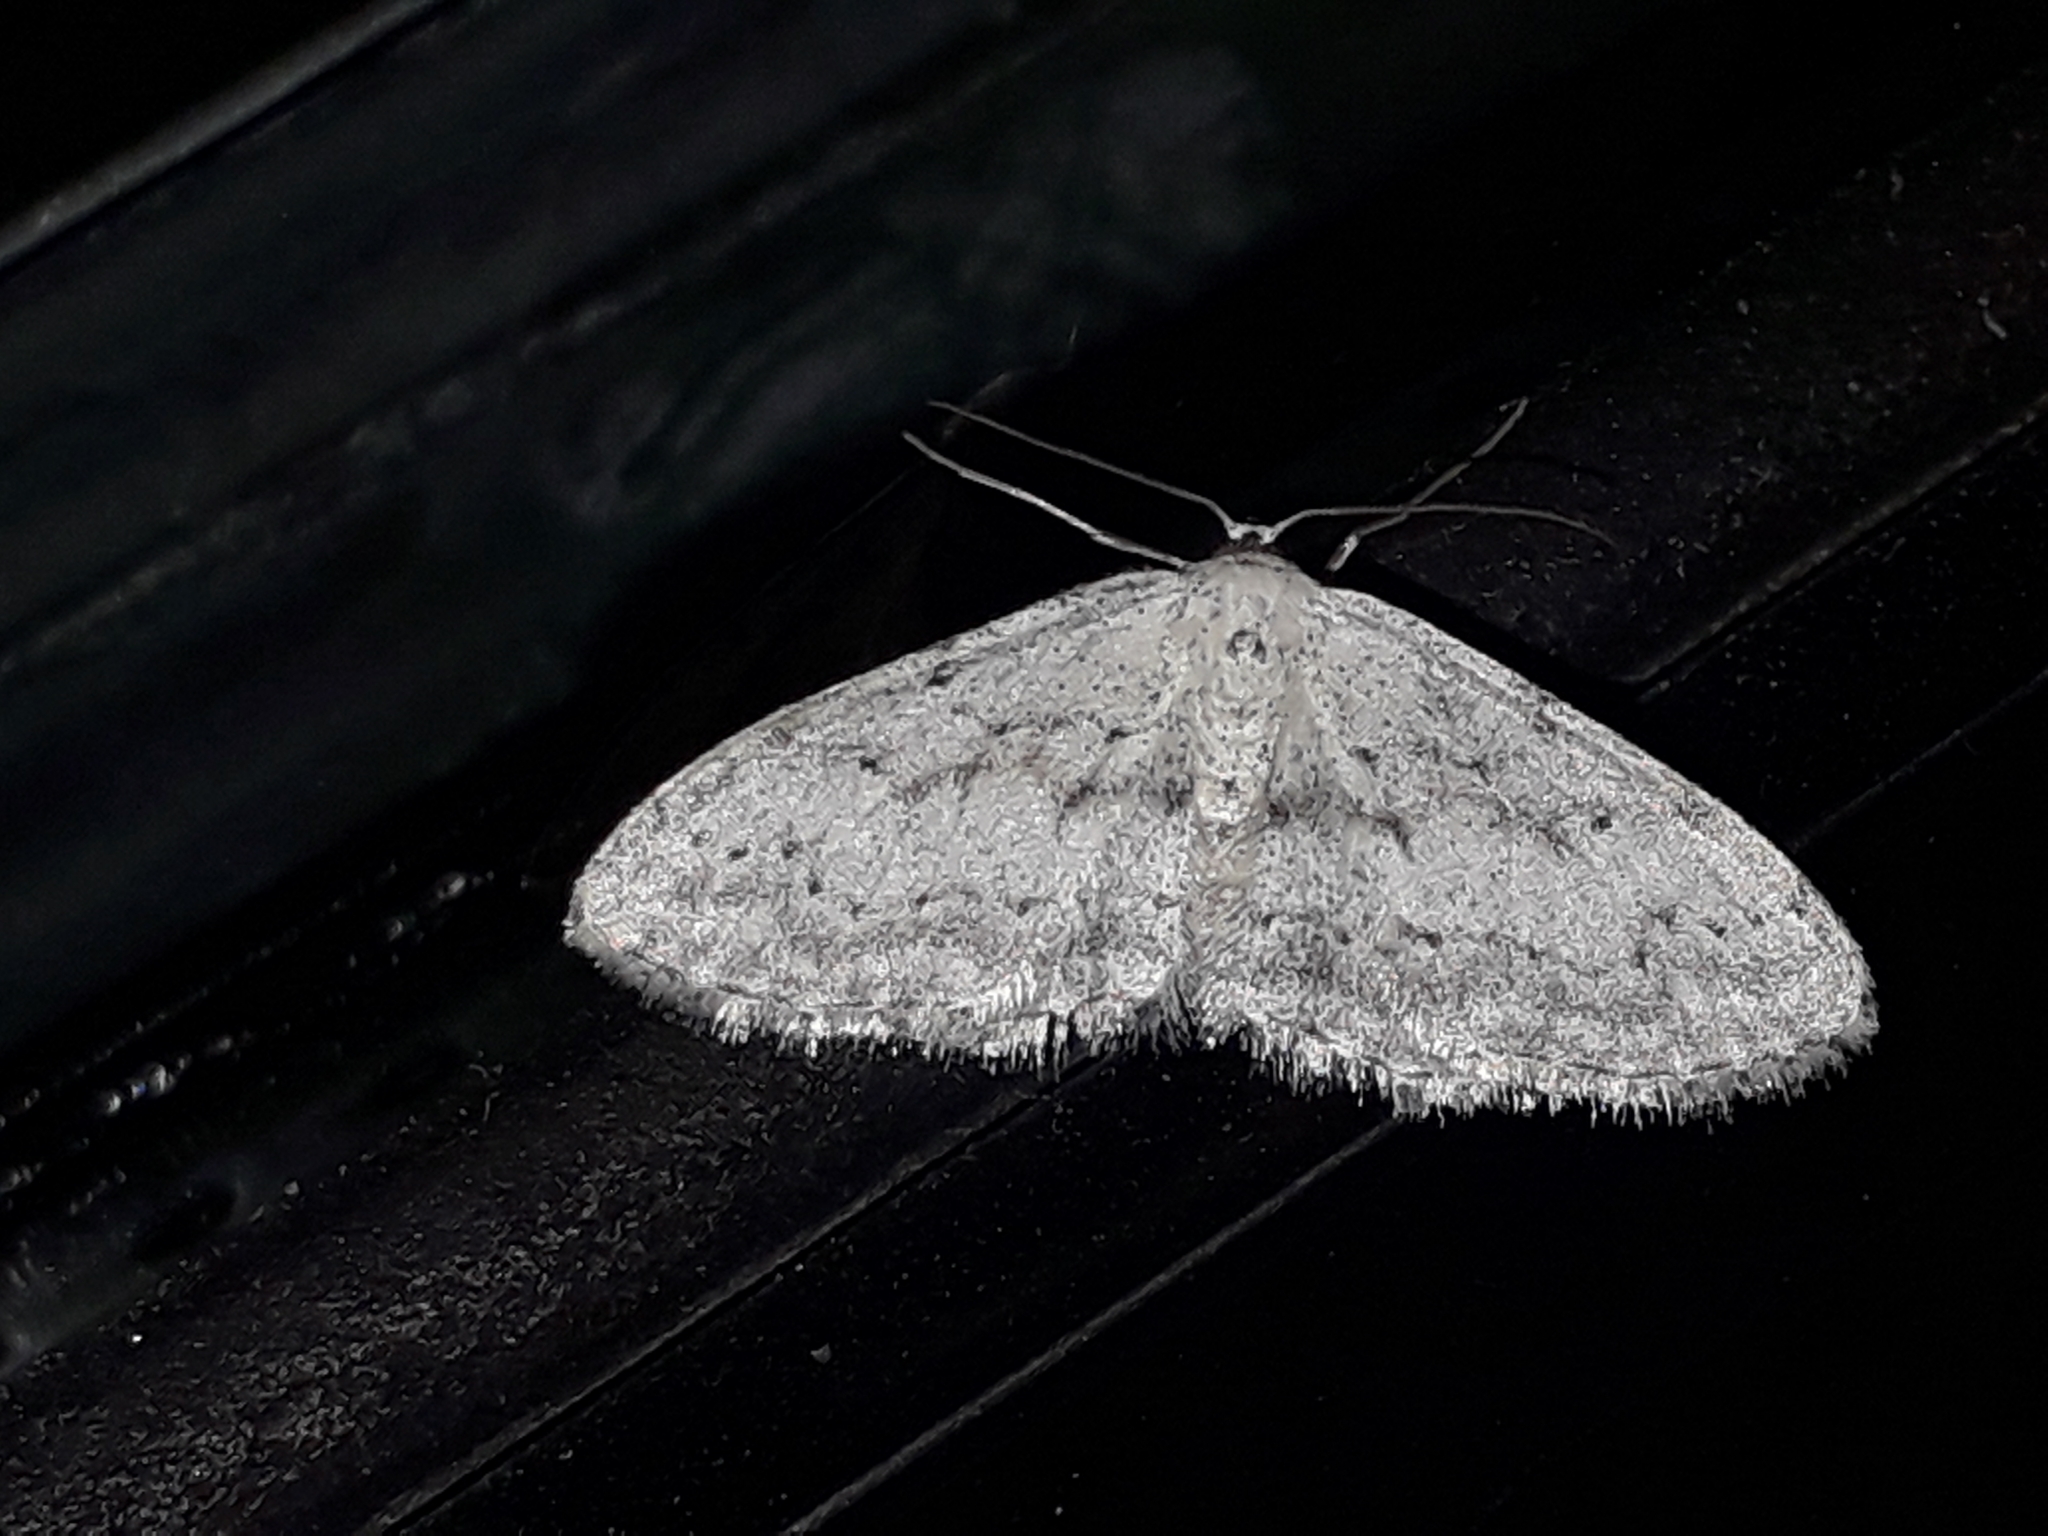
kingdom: Animalia
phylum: Arthropoda
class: Insecta
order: Lepidoptera
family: Geometridae
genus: Idaea
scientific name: Idaea seriata
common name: Small dusty wave
